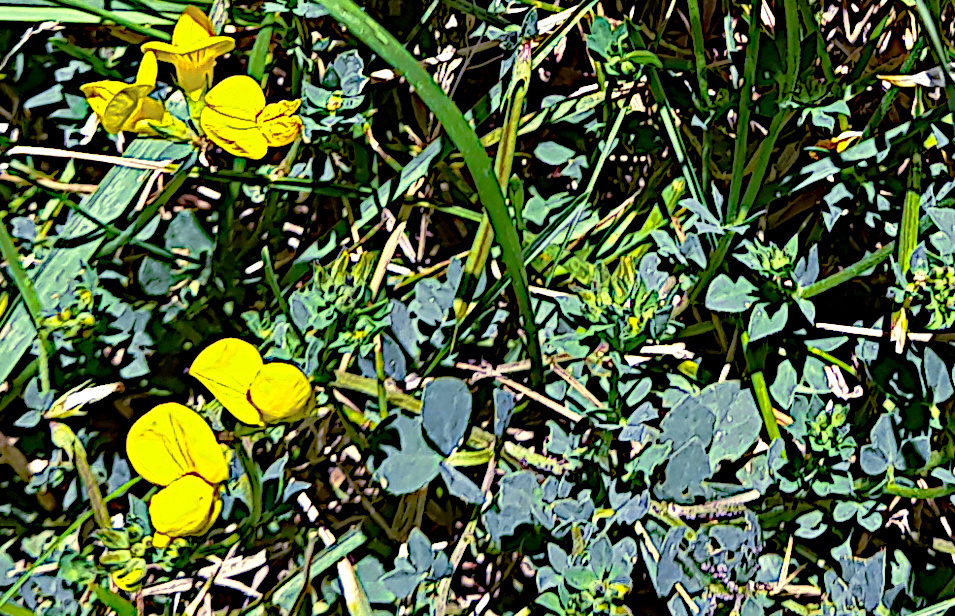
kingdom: Plantae
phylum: Tracheophyta
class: Magnoliopsida
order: Fabales
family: Fabaceae
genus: Lotus
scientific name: Lotus corniculatus
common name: Common bird's-foot-trefoil
